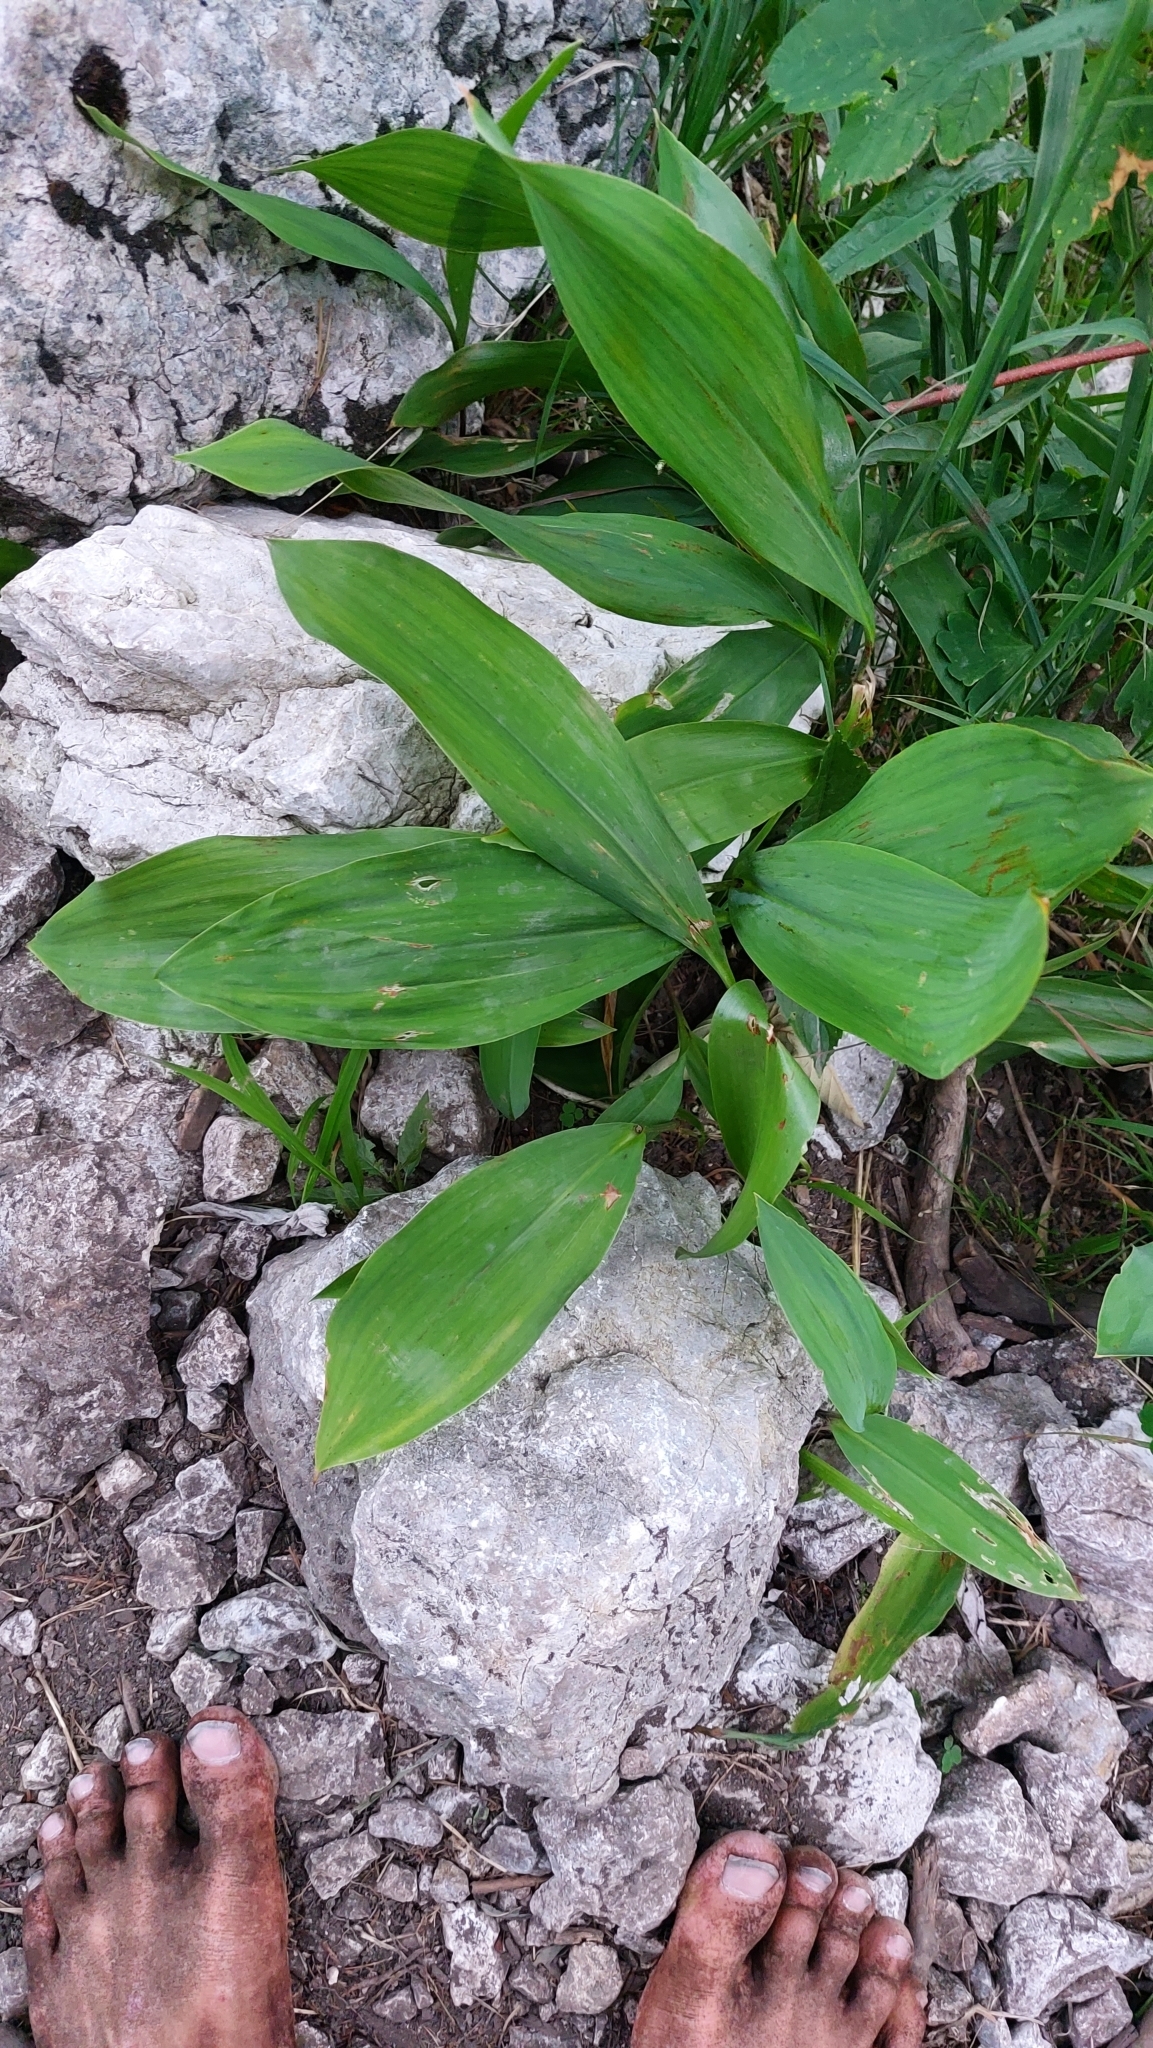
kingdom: Plantae
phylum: Tracheophyta
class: Liliopsida
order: Asparagales
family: Asparagaceae
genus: Convallaria
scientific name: Convallaria majalis
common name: Lily-of-the-valley
